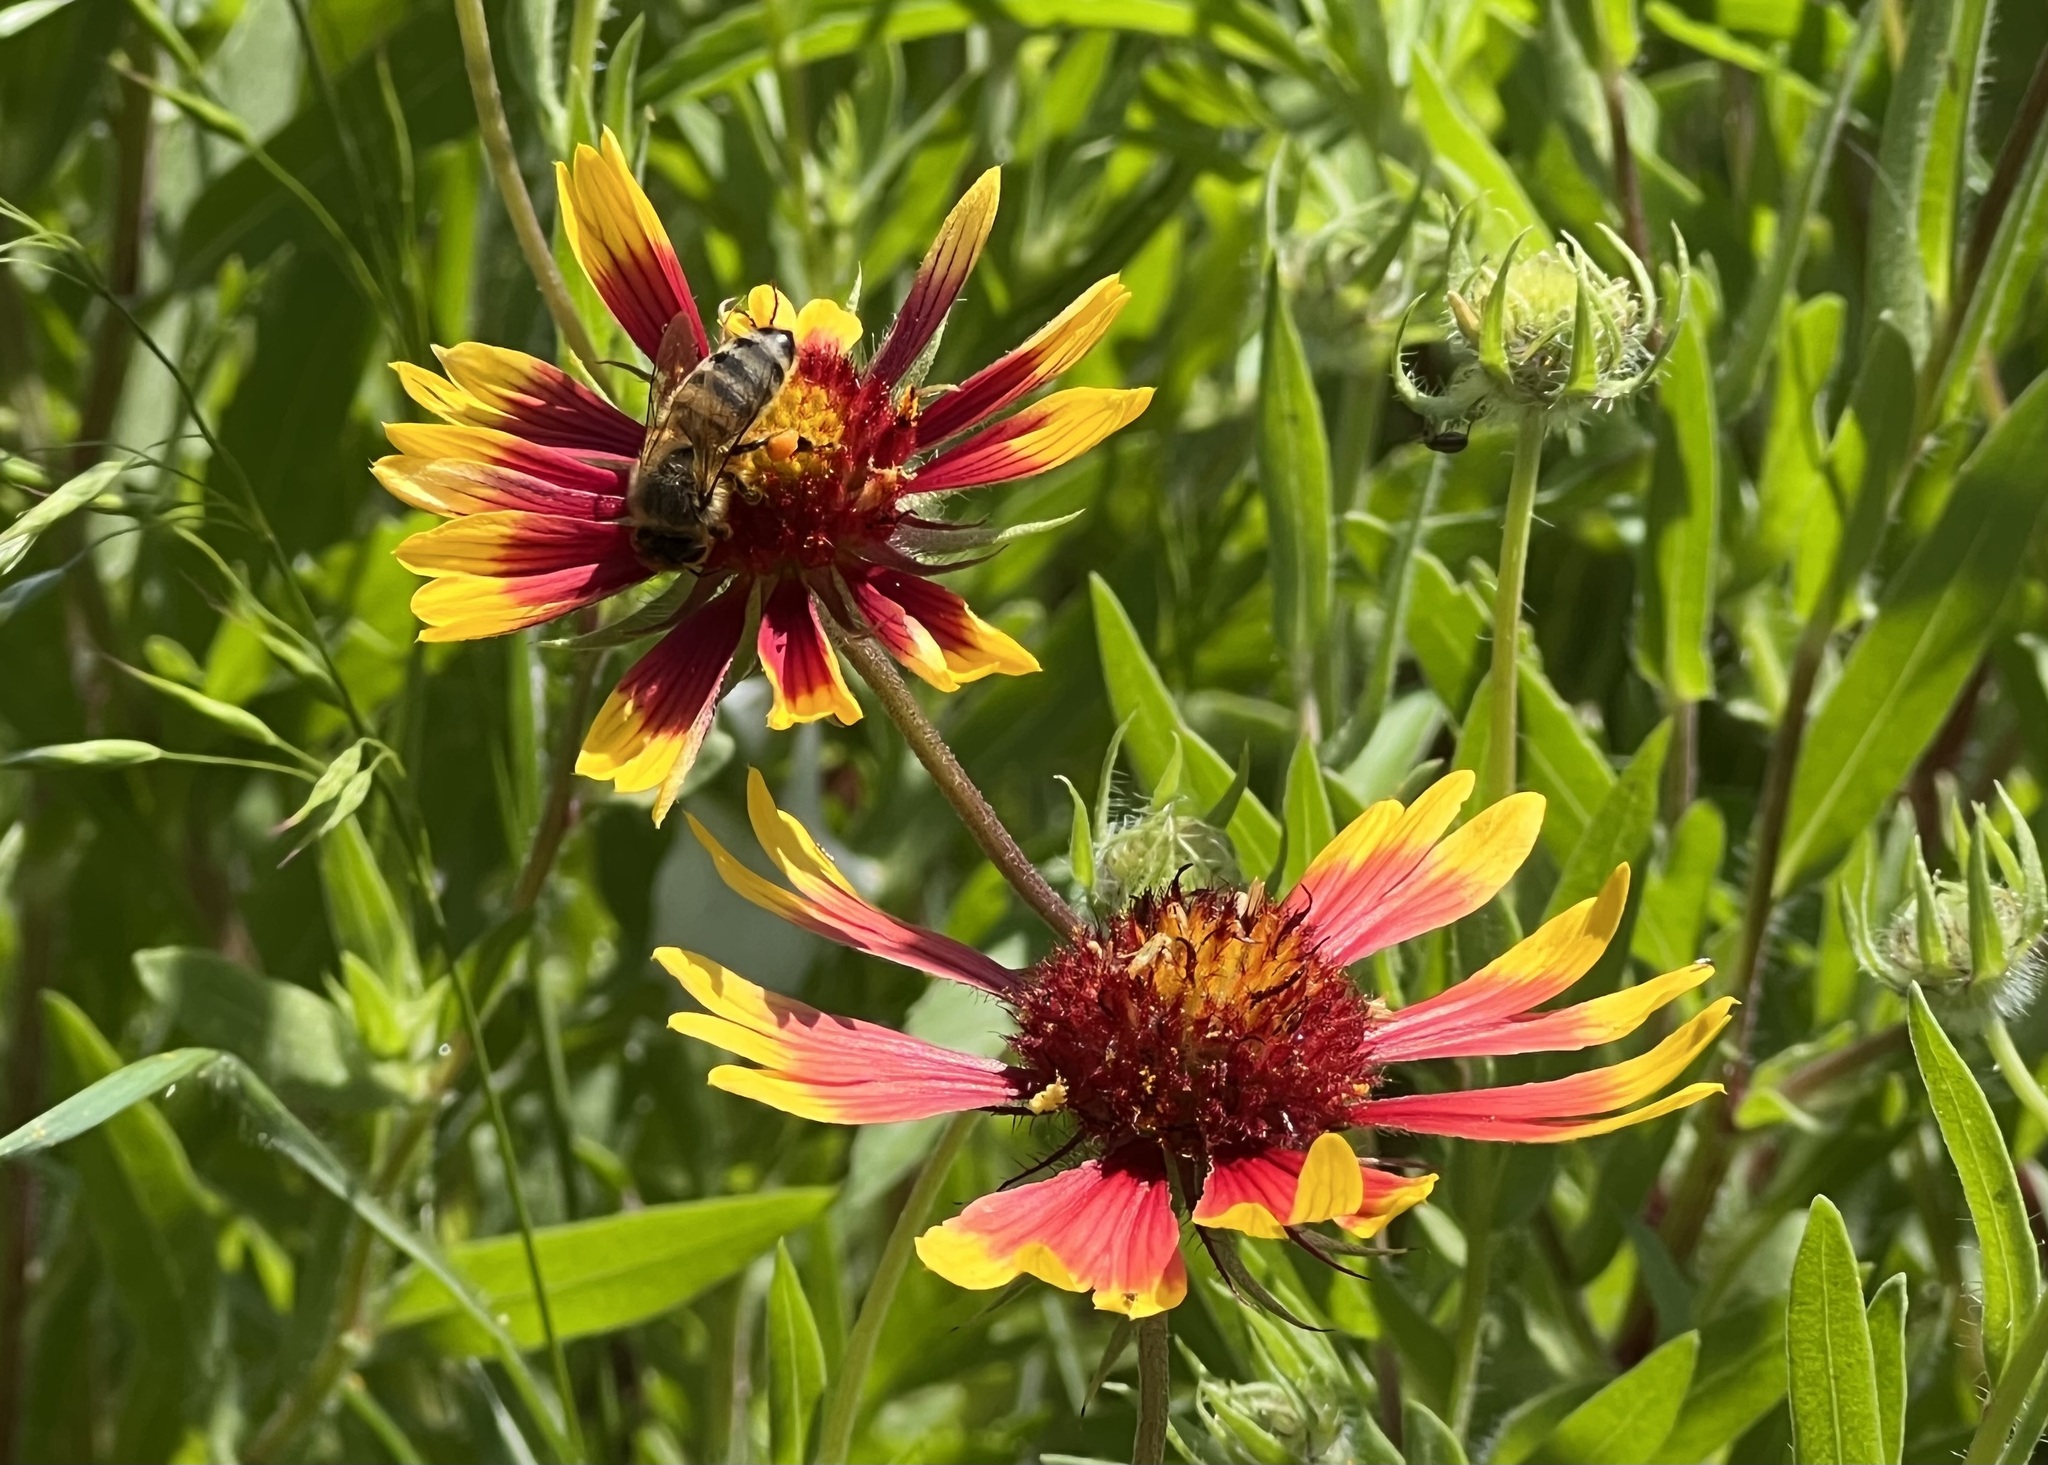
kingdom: Animalia
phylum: Arthropoda
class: Insecta
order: Hymenoptera
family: Apidae
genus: Apis
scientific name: Apis mellifera
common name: Honey bee
